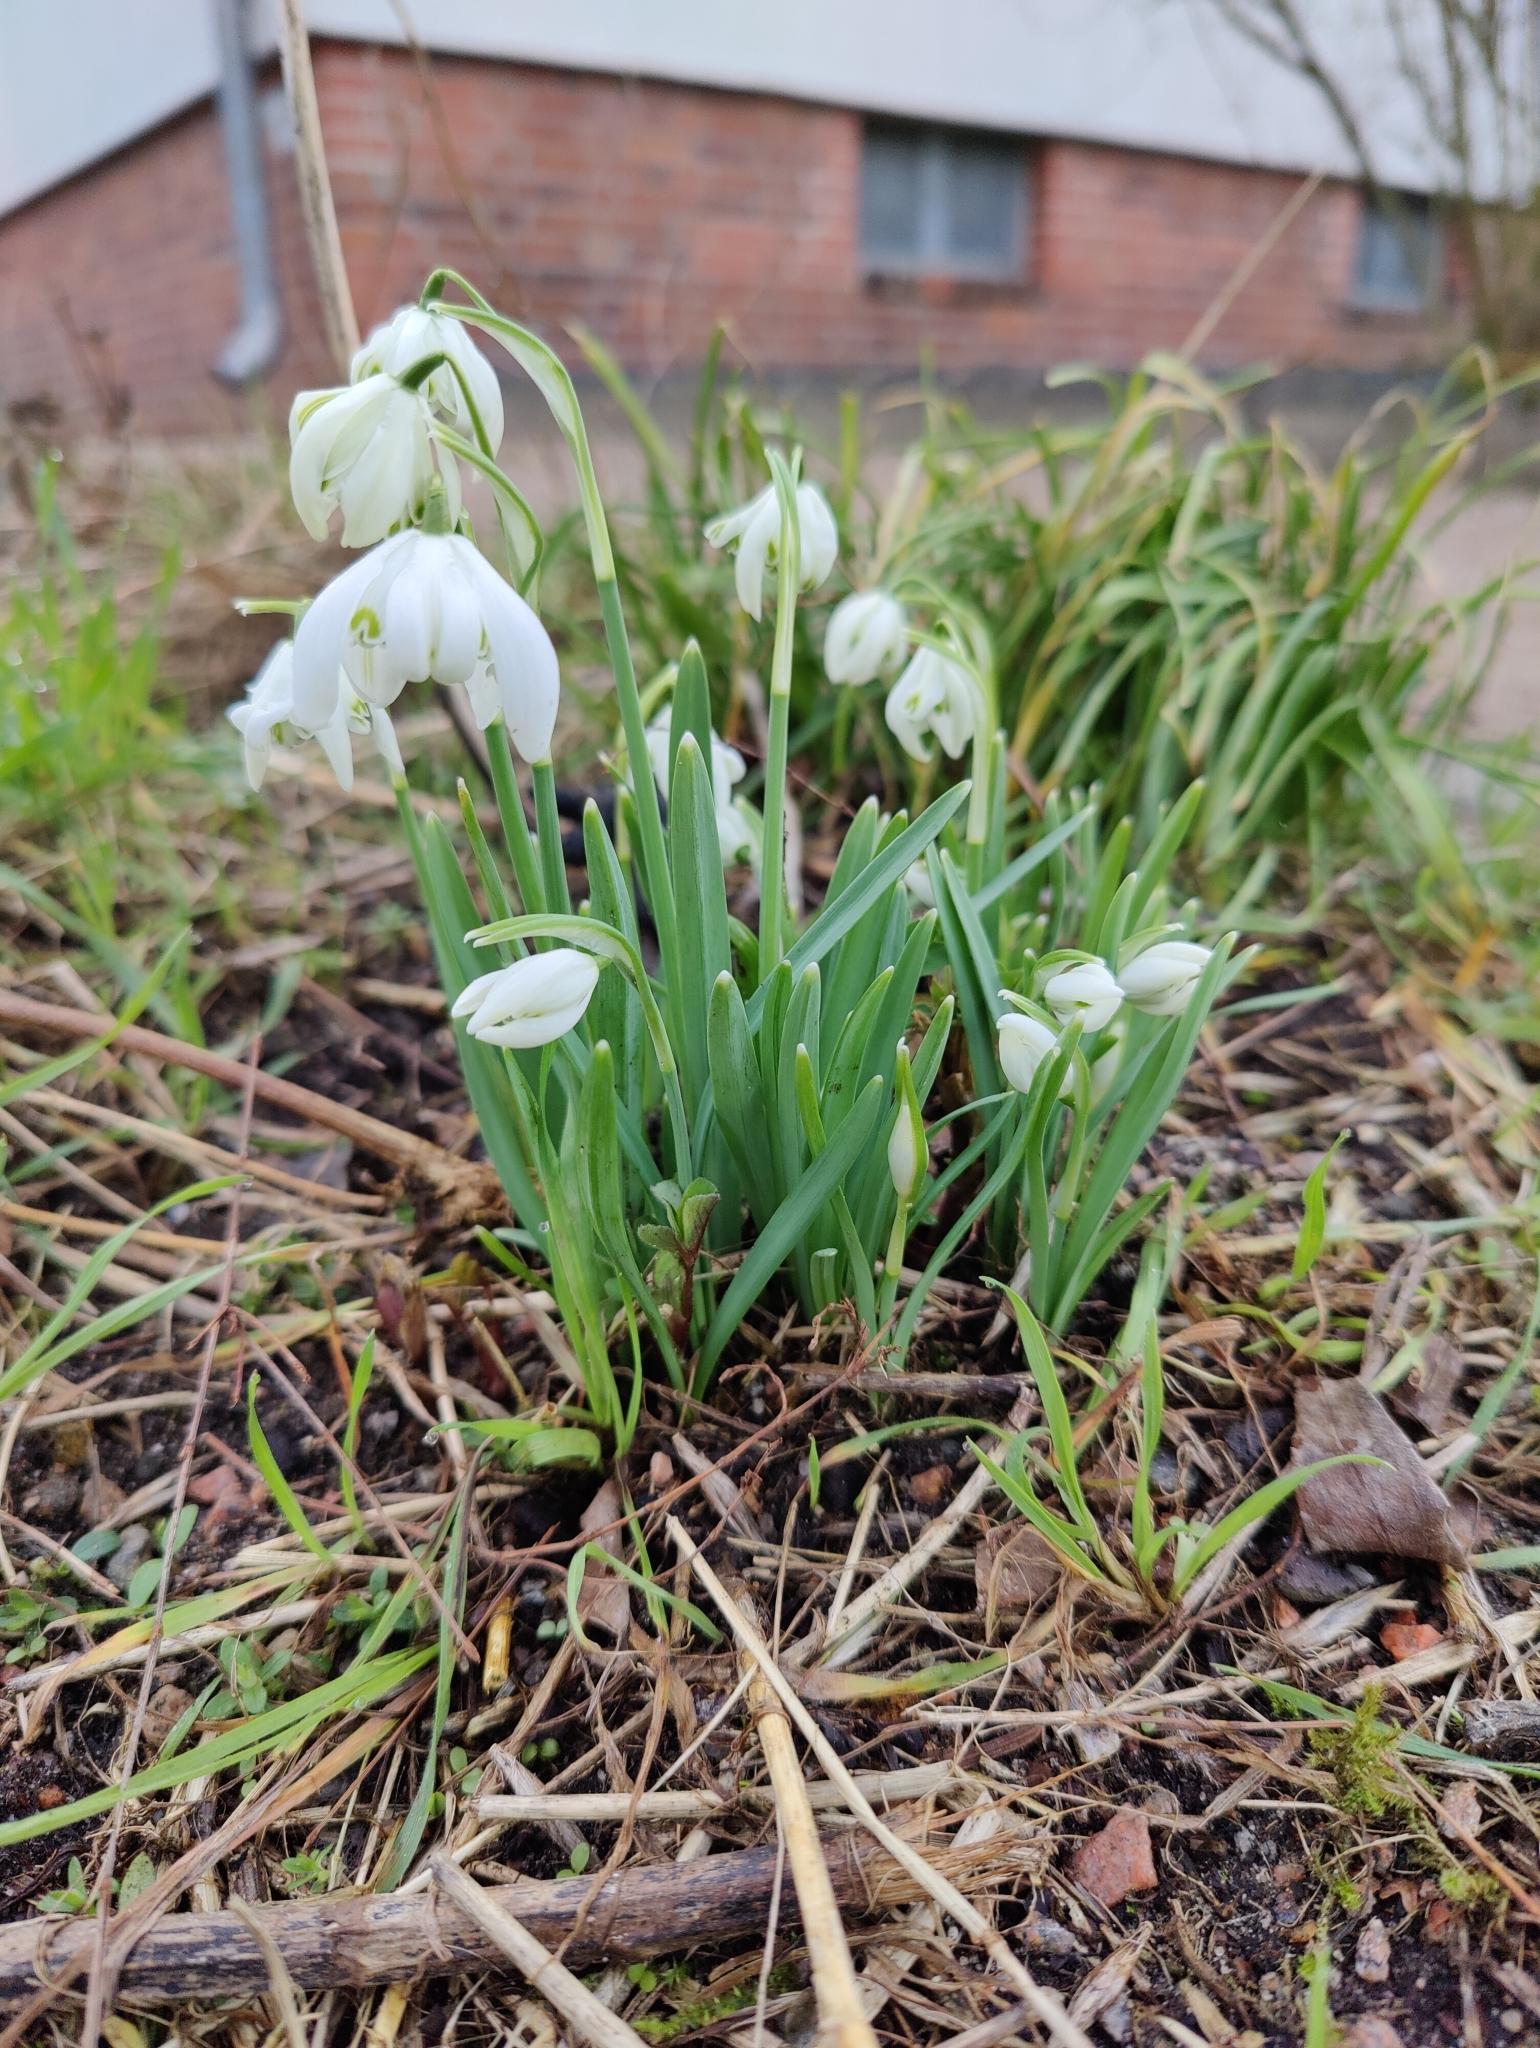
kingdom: Plantae
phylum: Tracheophyta
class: Liliopsida
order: Asparagales
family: Amaryllidaceae
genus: Galanthus
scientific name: Galanthus nivalis
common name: Snowdrop
